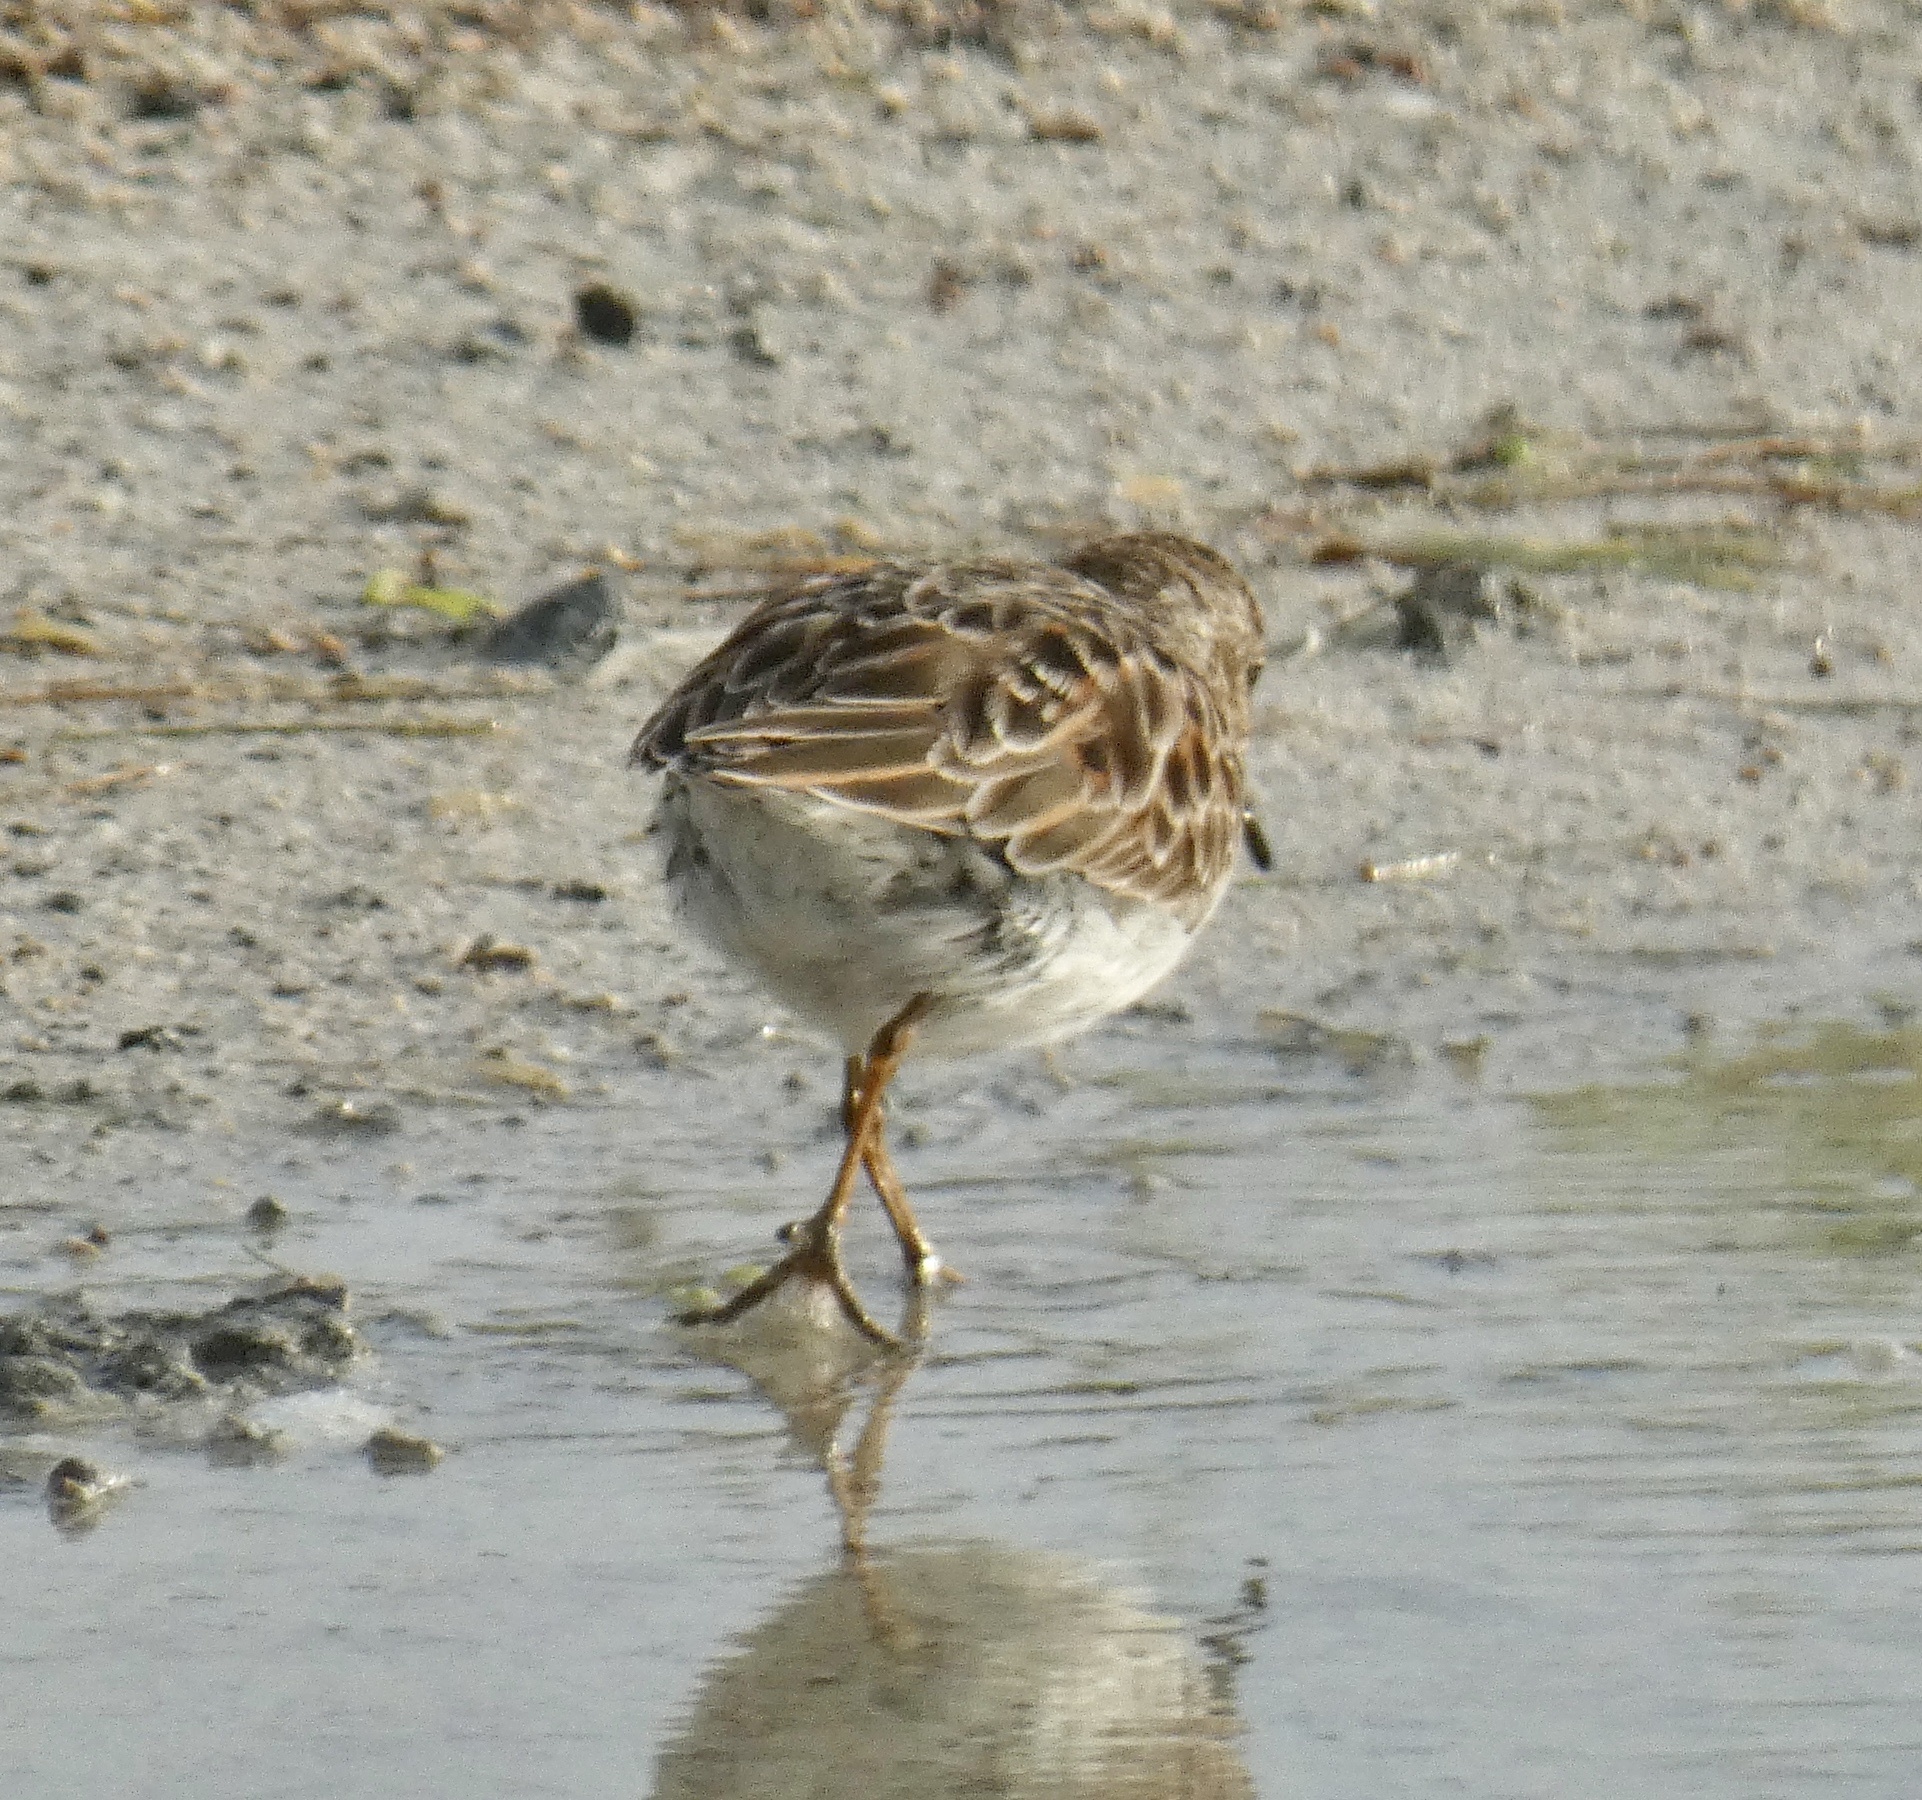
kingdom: Animalia
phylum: Chordata
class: Aves
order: Charadriiformes
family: Scolopacidae
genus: Calidris
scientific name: Calidris minutilla
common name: Least sandpiper
